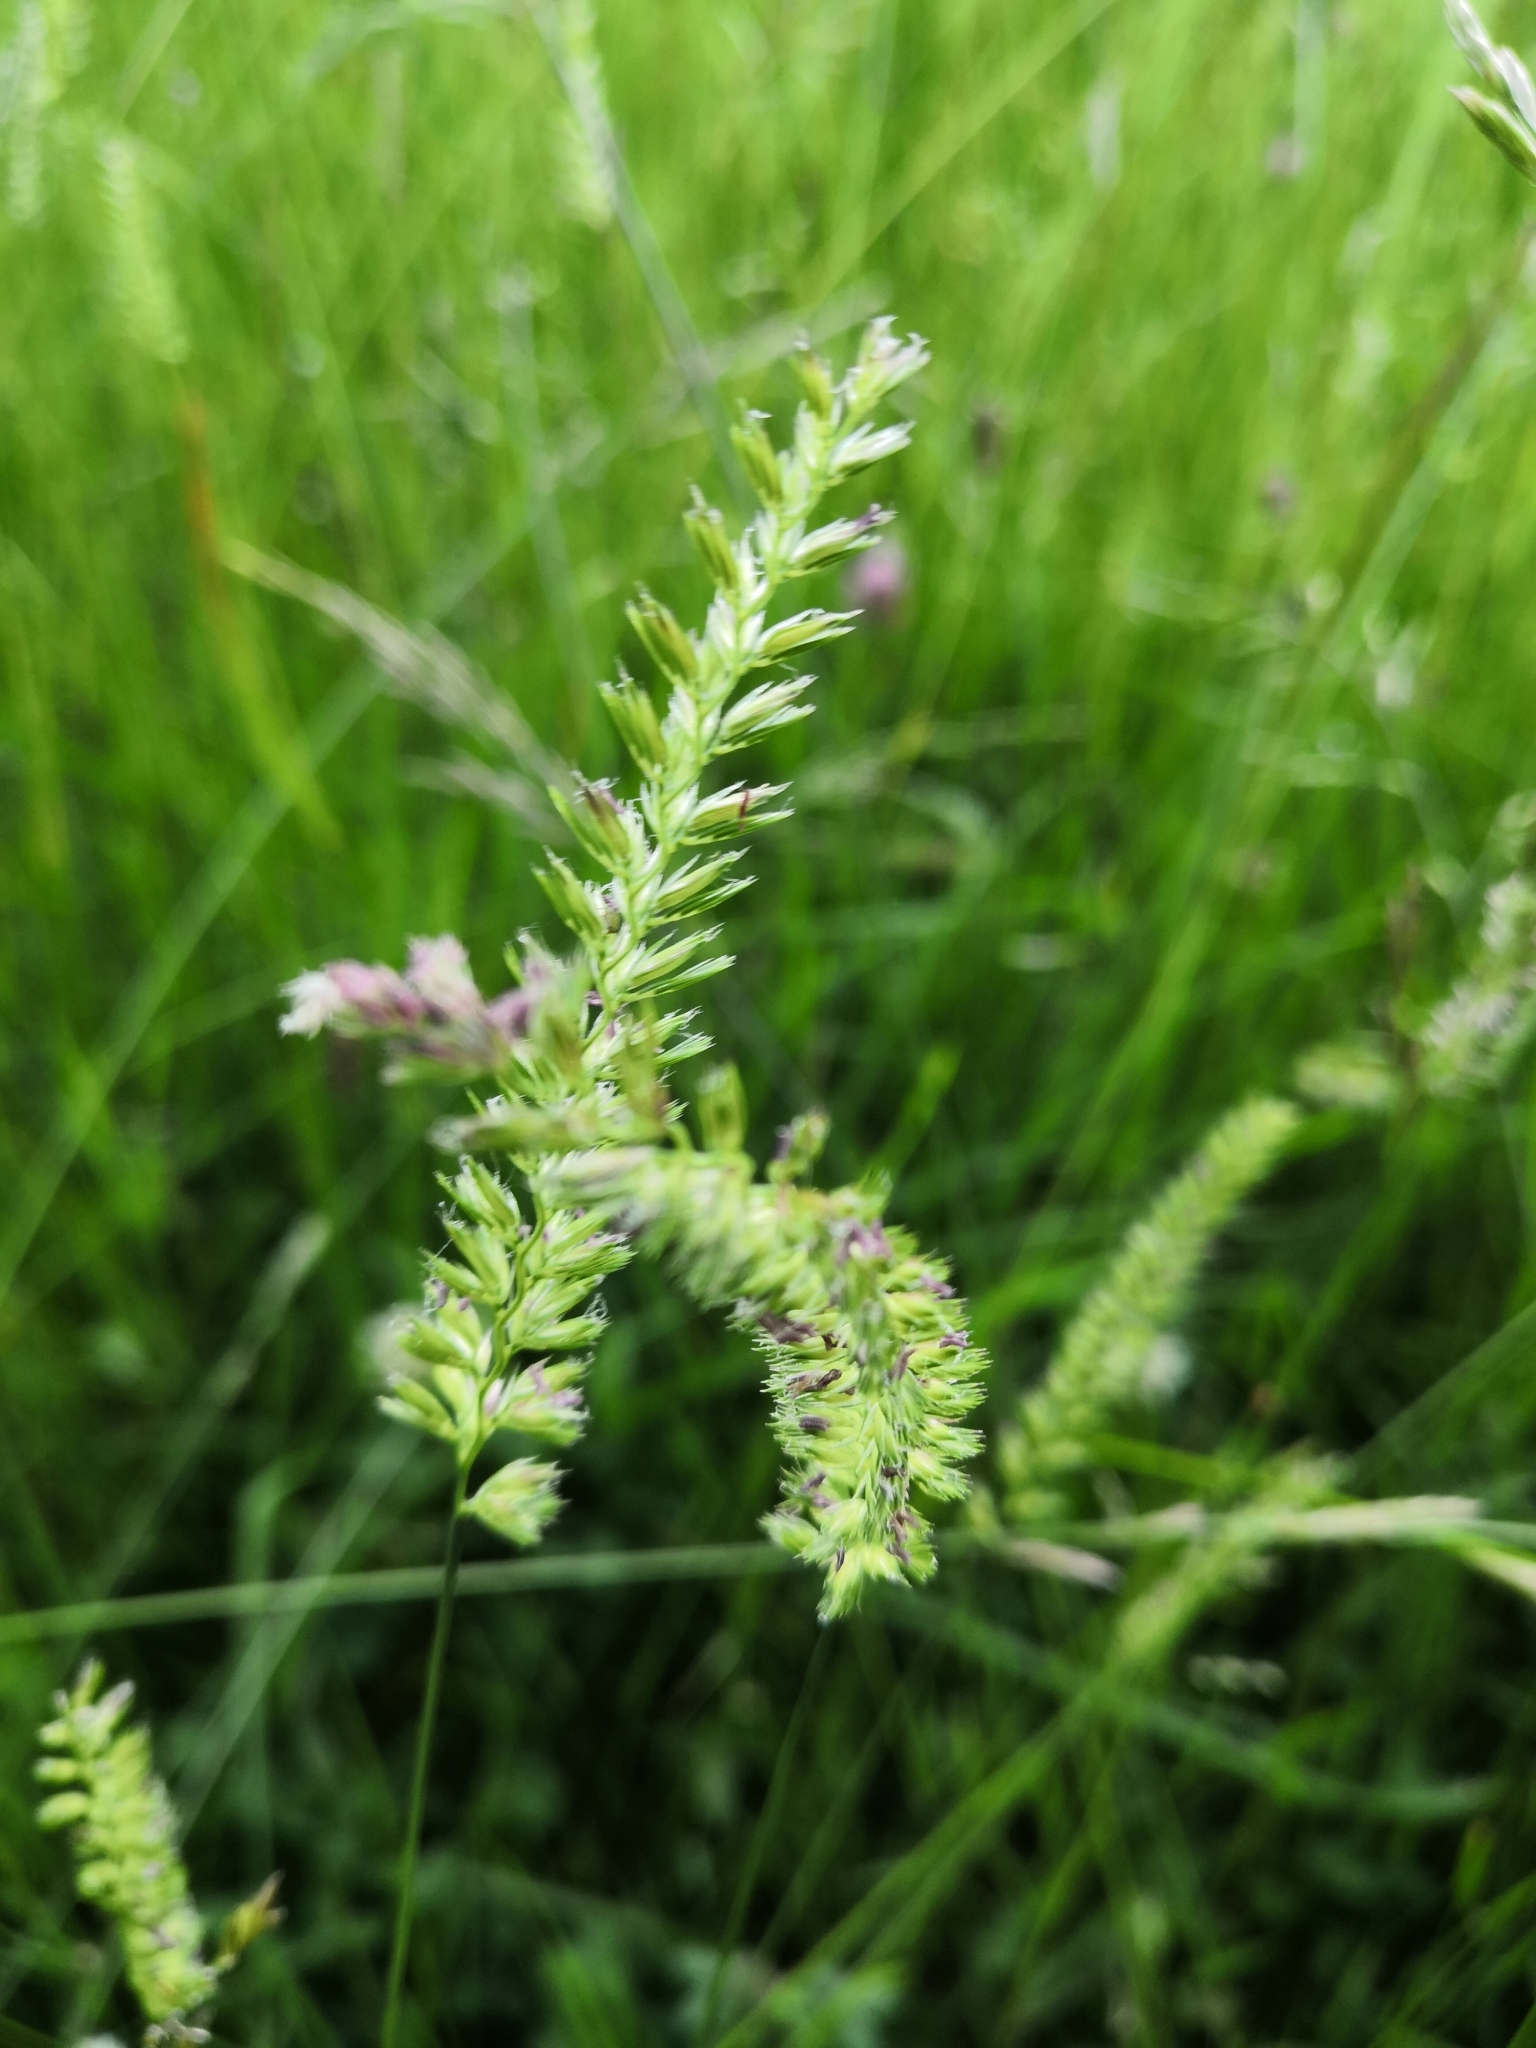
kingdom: Plantae
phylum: Tracheophyta
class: Liliopsida
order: Poales
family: Poaceae
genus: Cynosurus
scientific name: Cynosurus cristatus
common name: Crested dog's-tail
